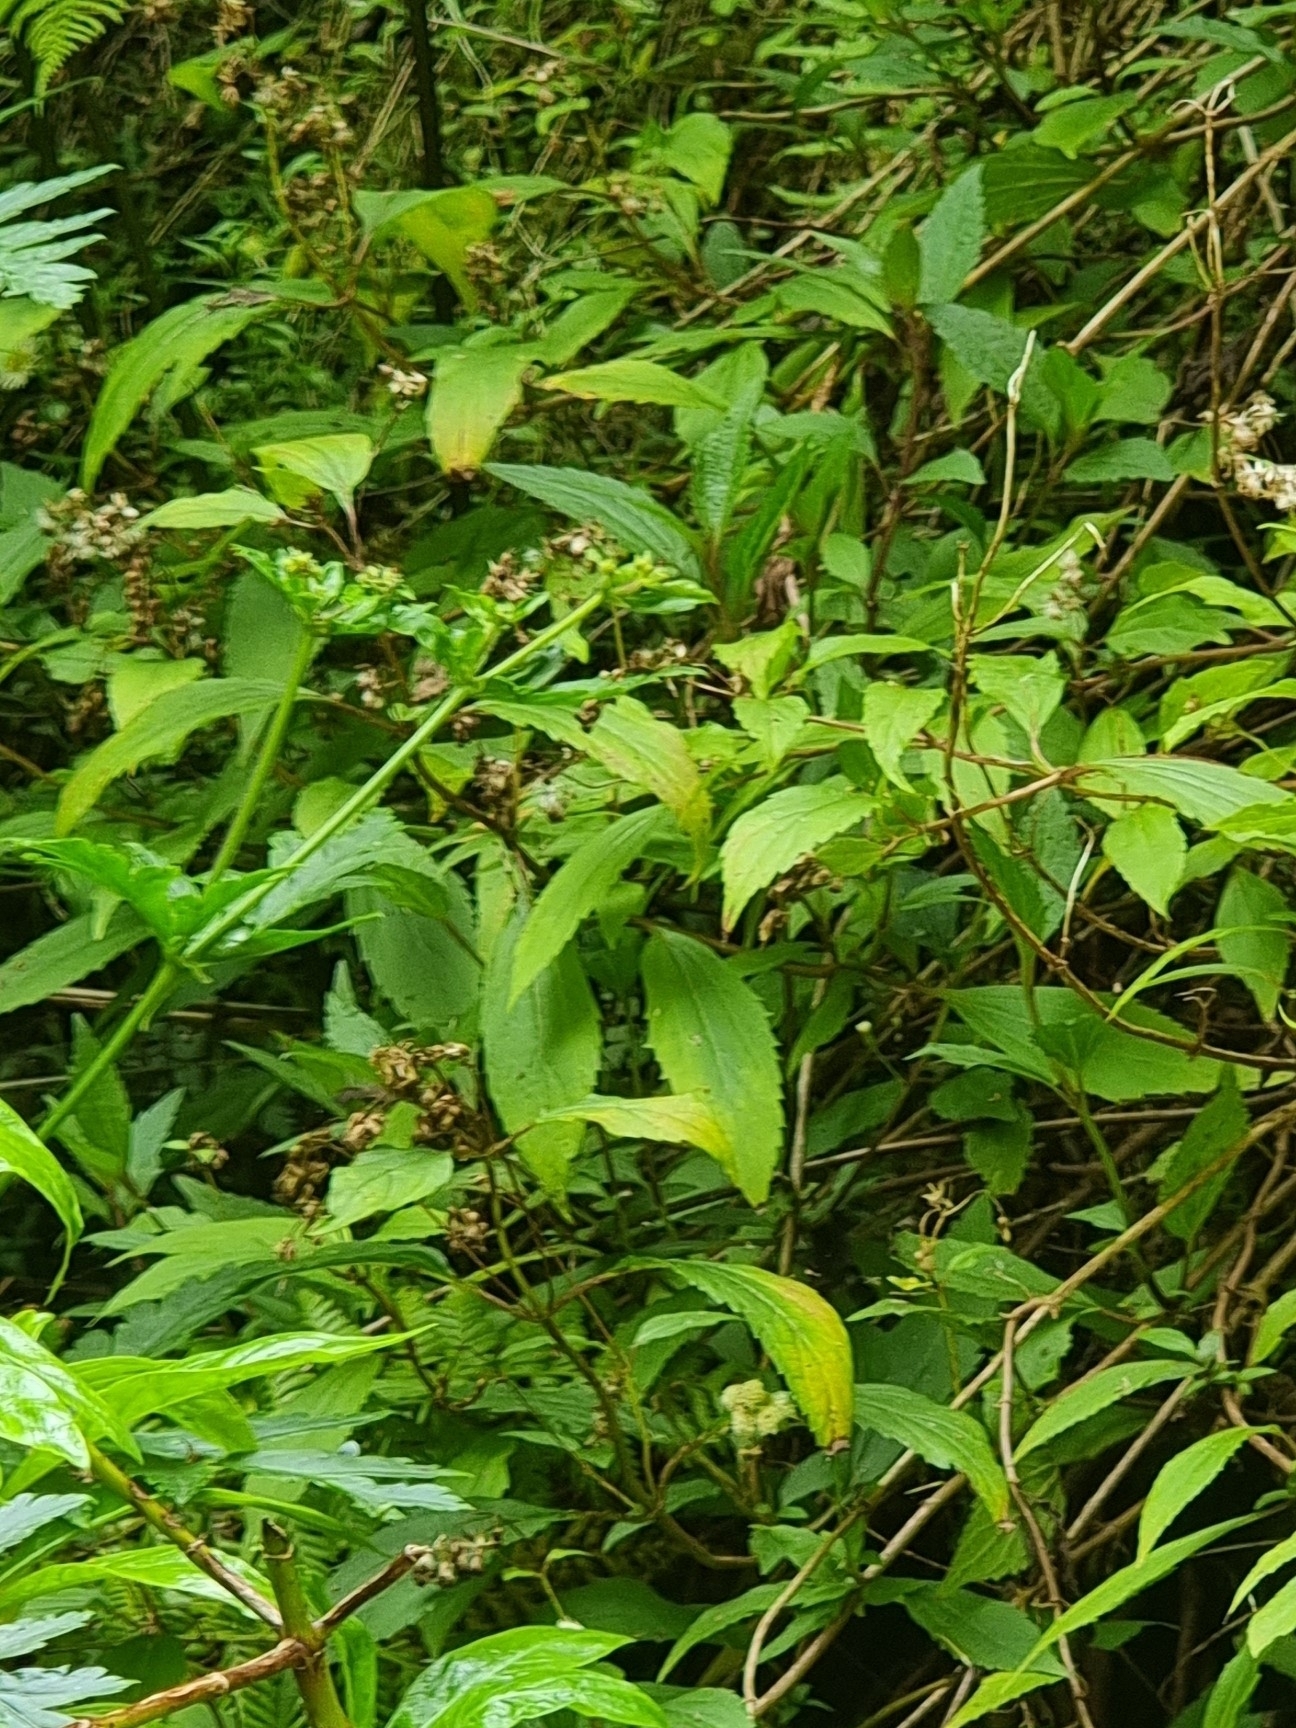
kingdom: Plantae
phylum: Tracheophyta
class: Magnoliopsida
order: Asterales
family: Asteraceae
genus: Ageratina
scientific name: Ageratina riparia
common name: Creeping croftonweed
